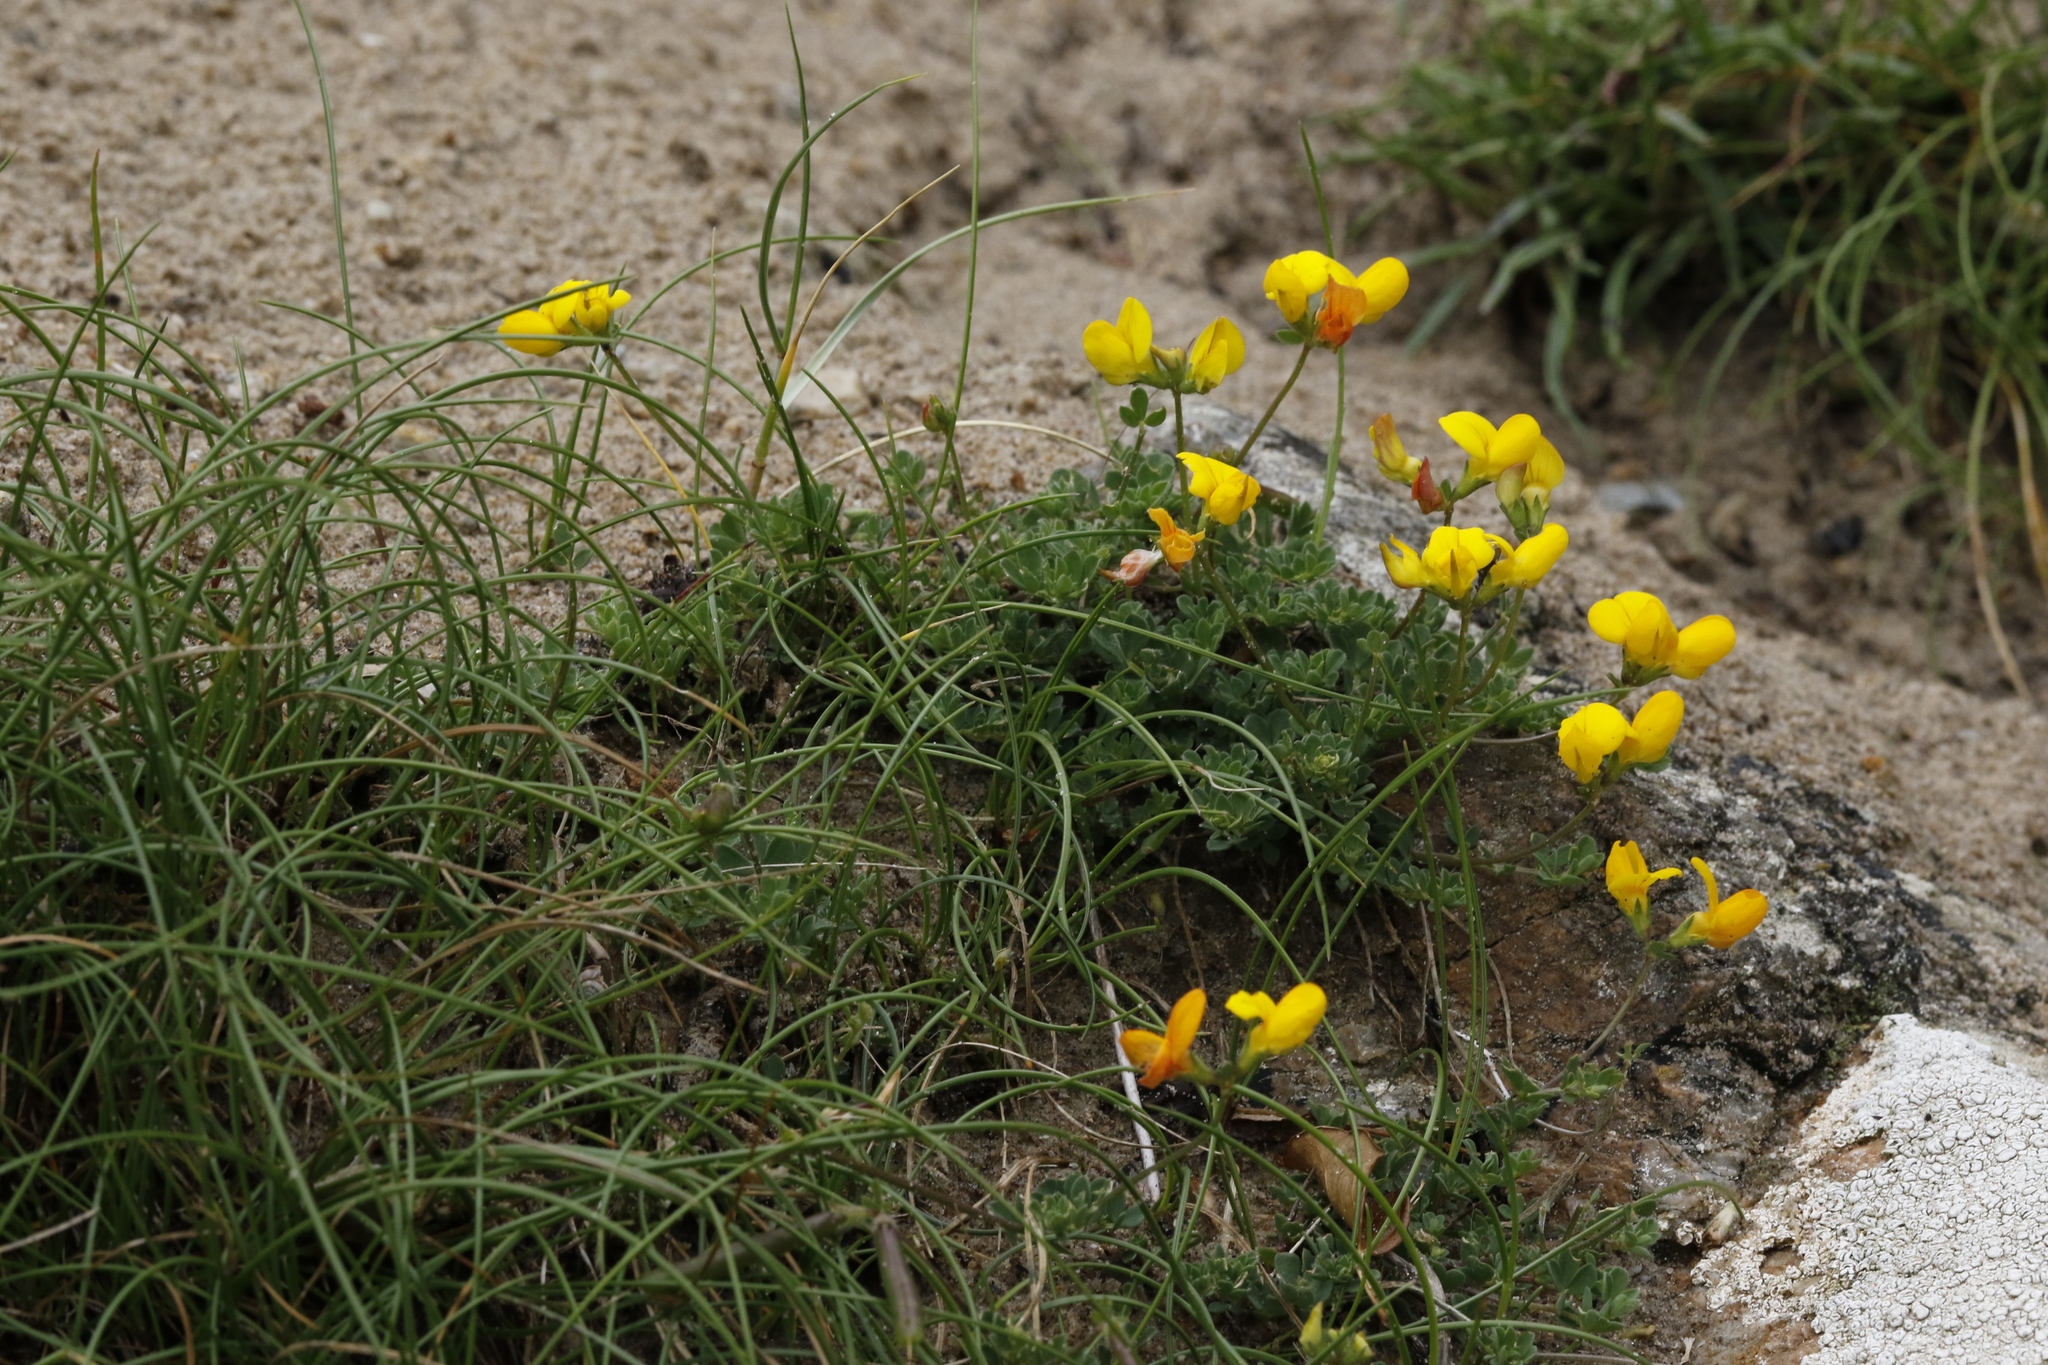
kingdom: Plantae
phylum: Tracheophyta
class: Magnoliopsida
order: Fabales
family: Fabaceae
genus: Lotus
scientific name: Lotus corniculatus
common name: Common bird's-foot-trefoil
